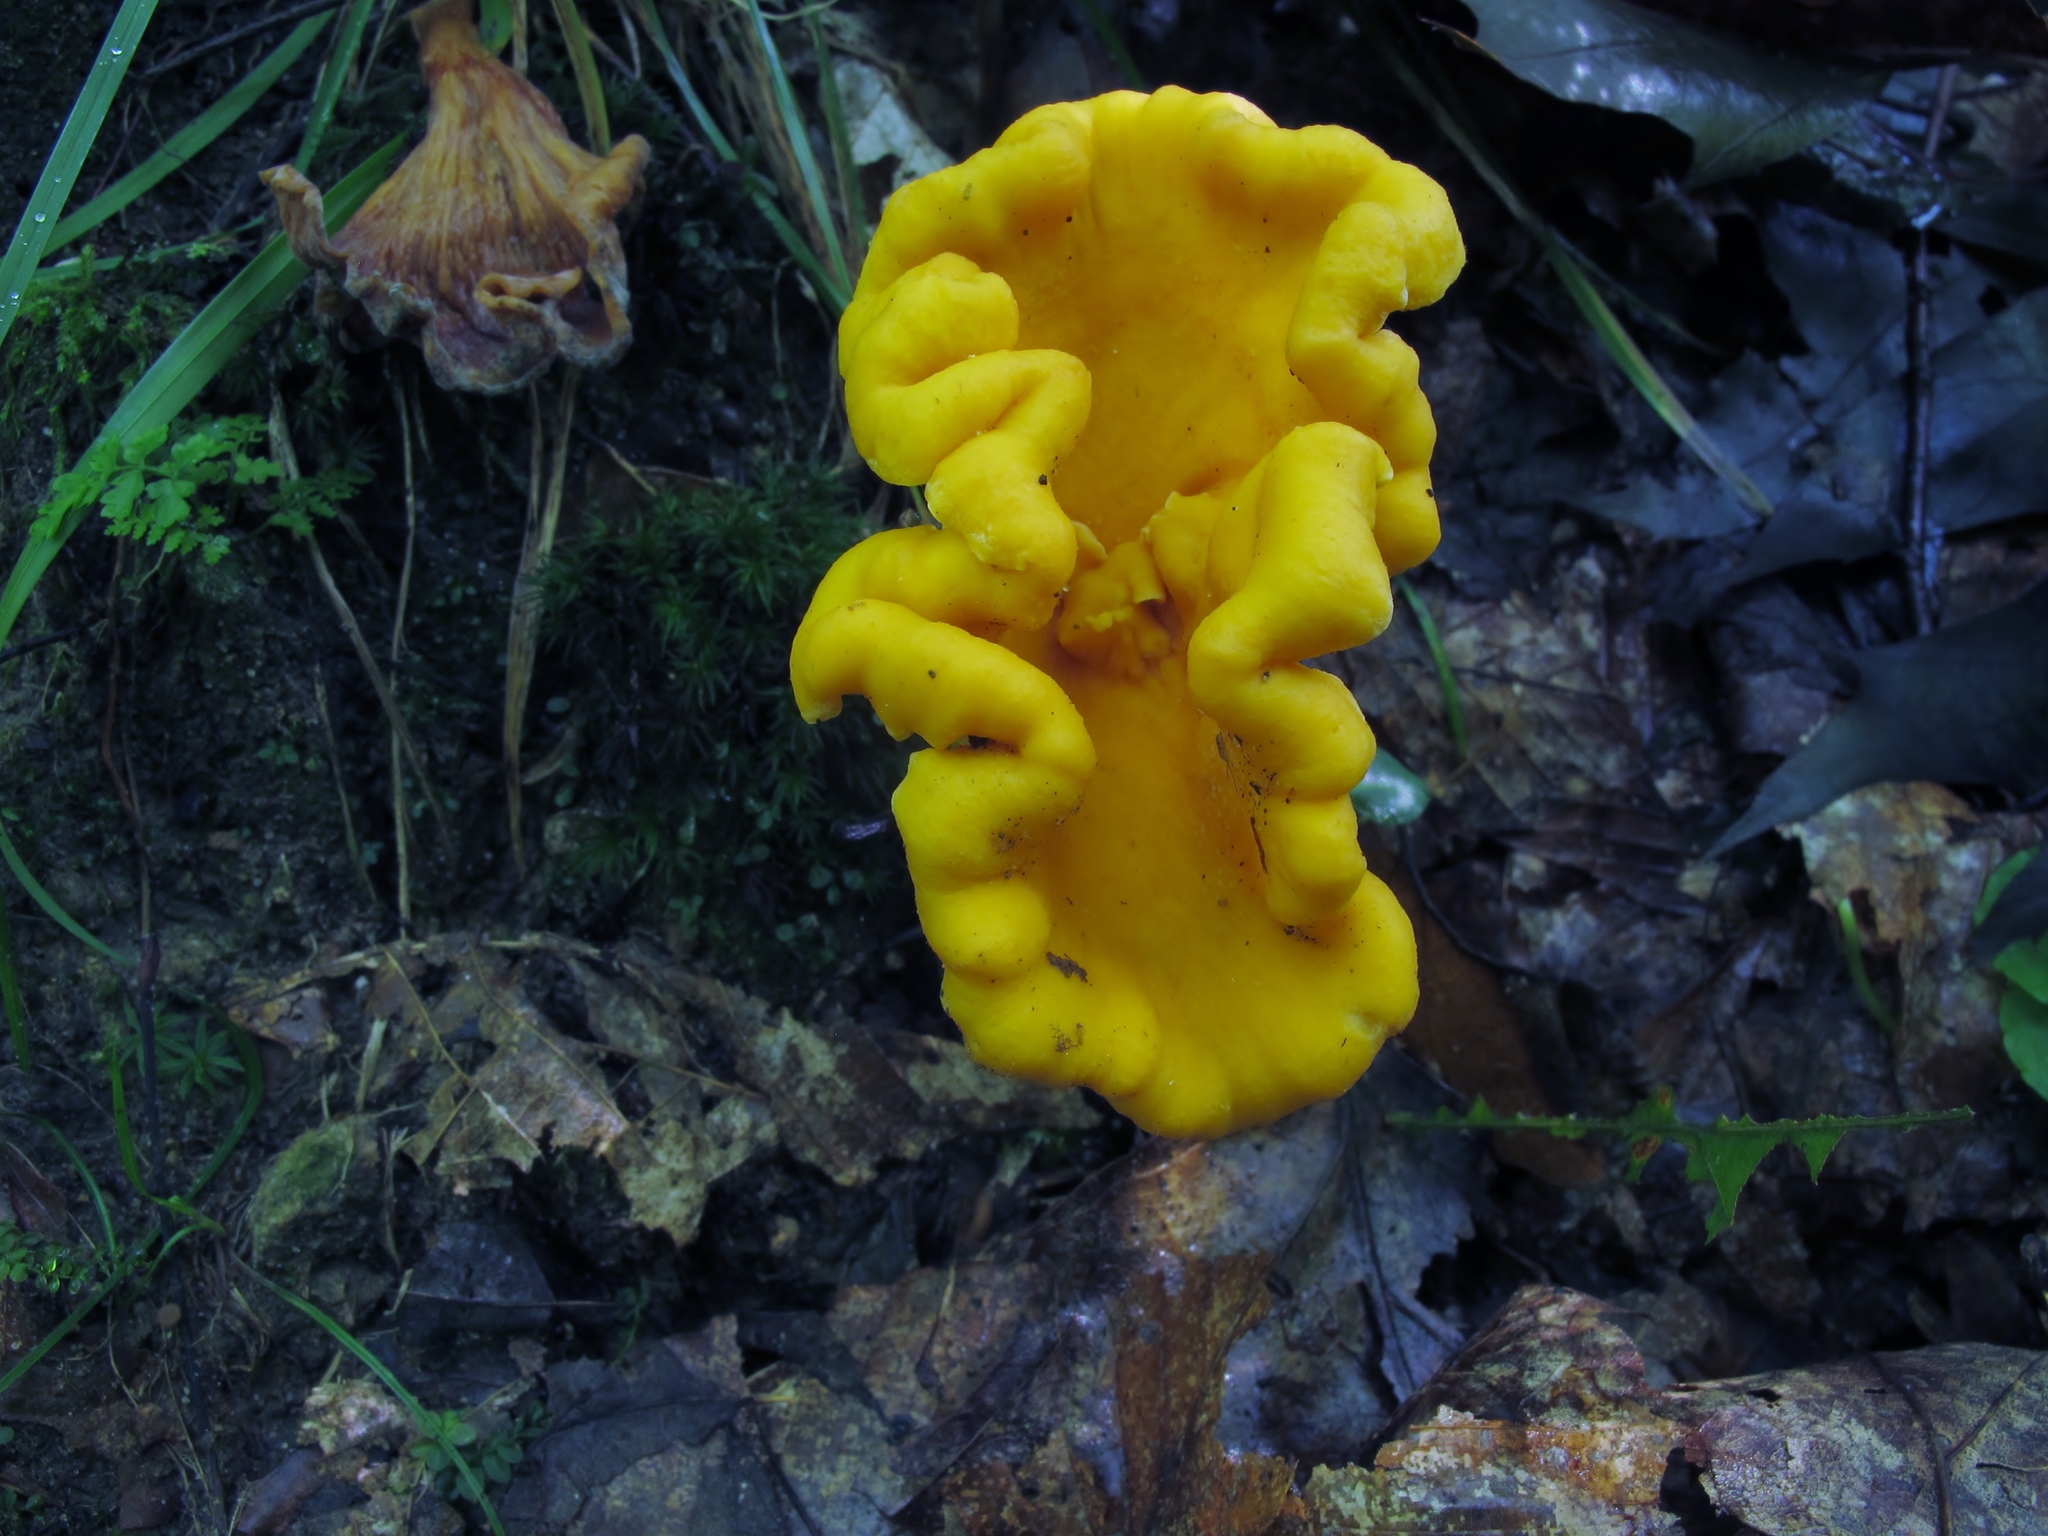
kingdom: Fungi
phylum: Basidiomycota
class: Agaricomycetes
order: Cantharellales
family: Hydnaceae
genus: Cantharellus
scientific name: Cantharellus lateritius
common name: Smooth chanterelle
